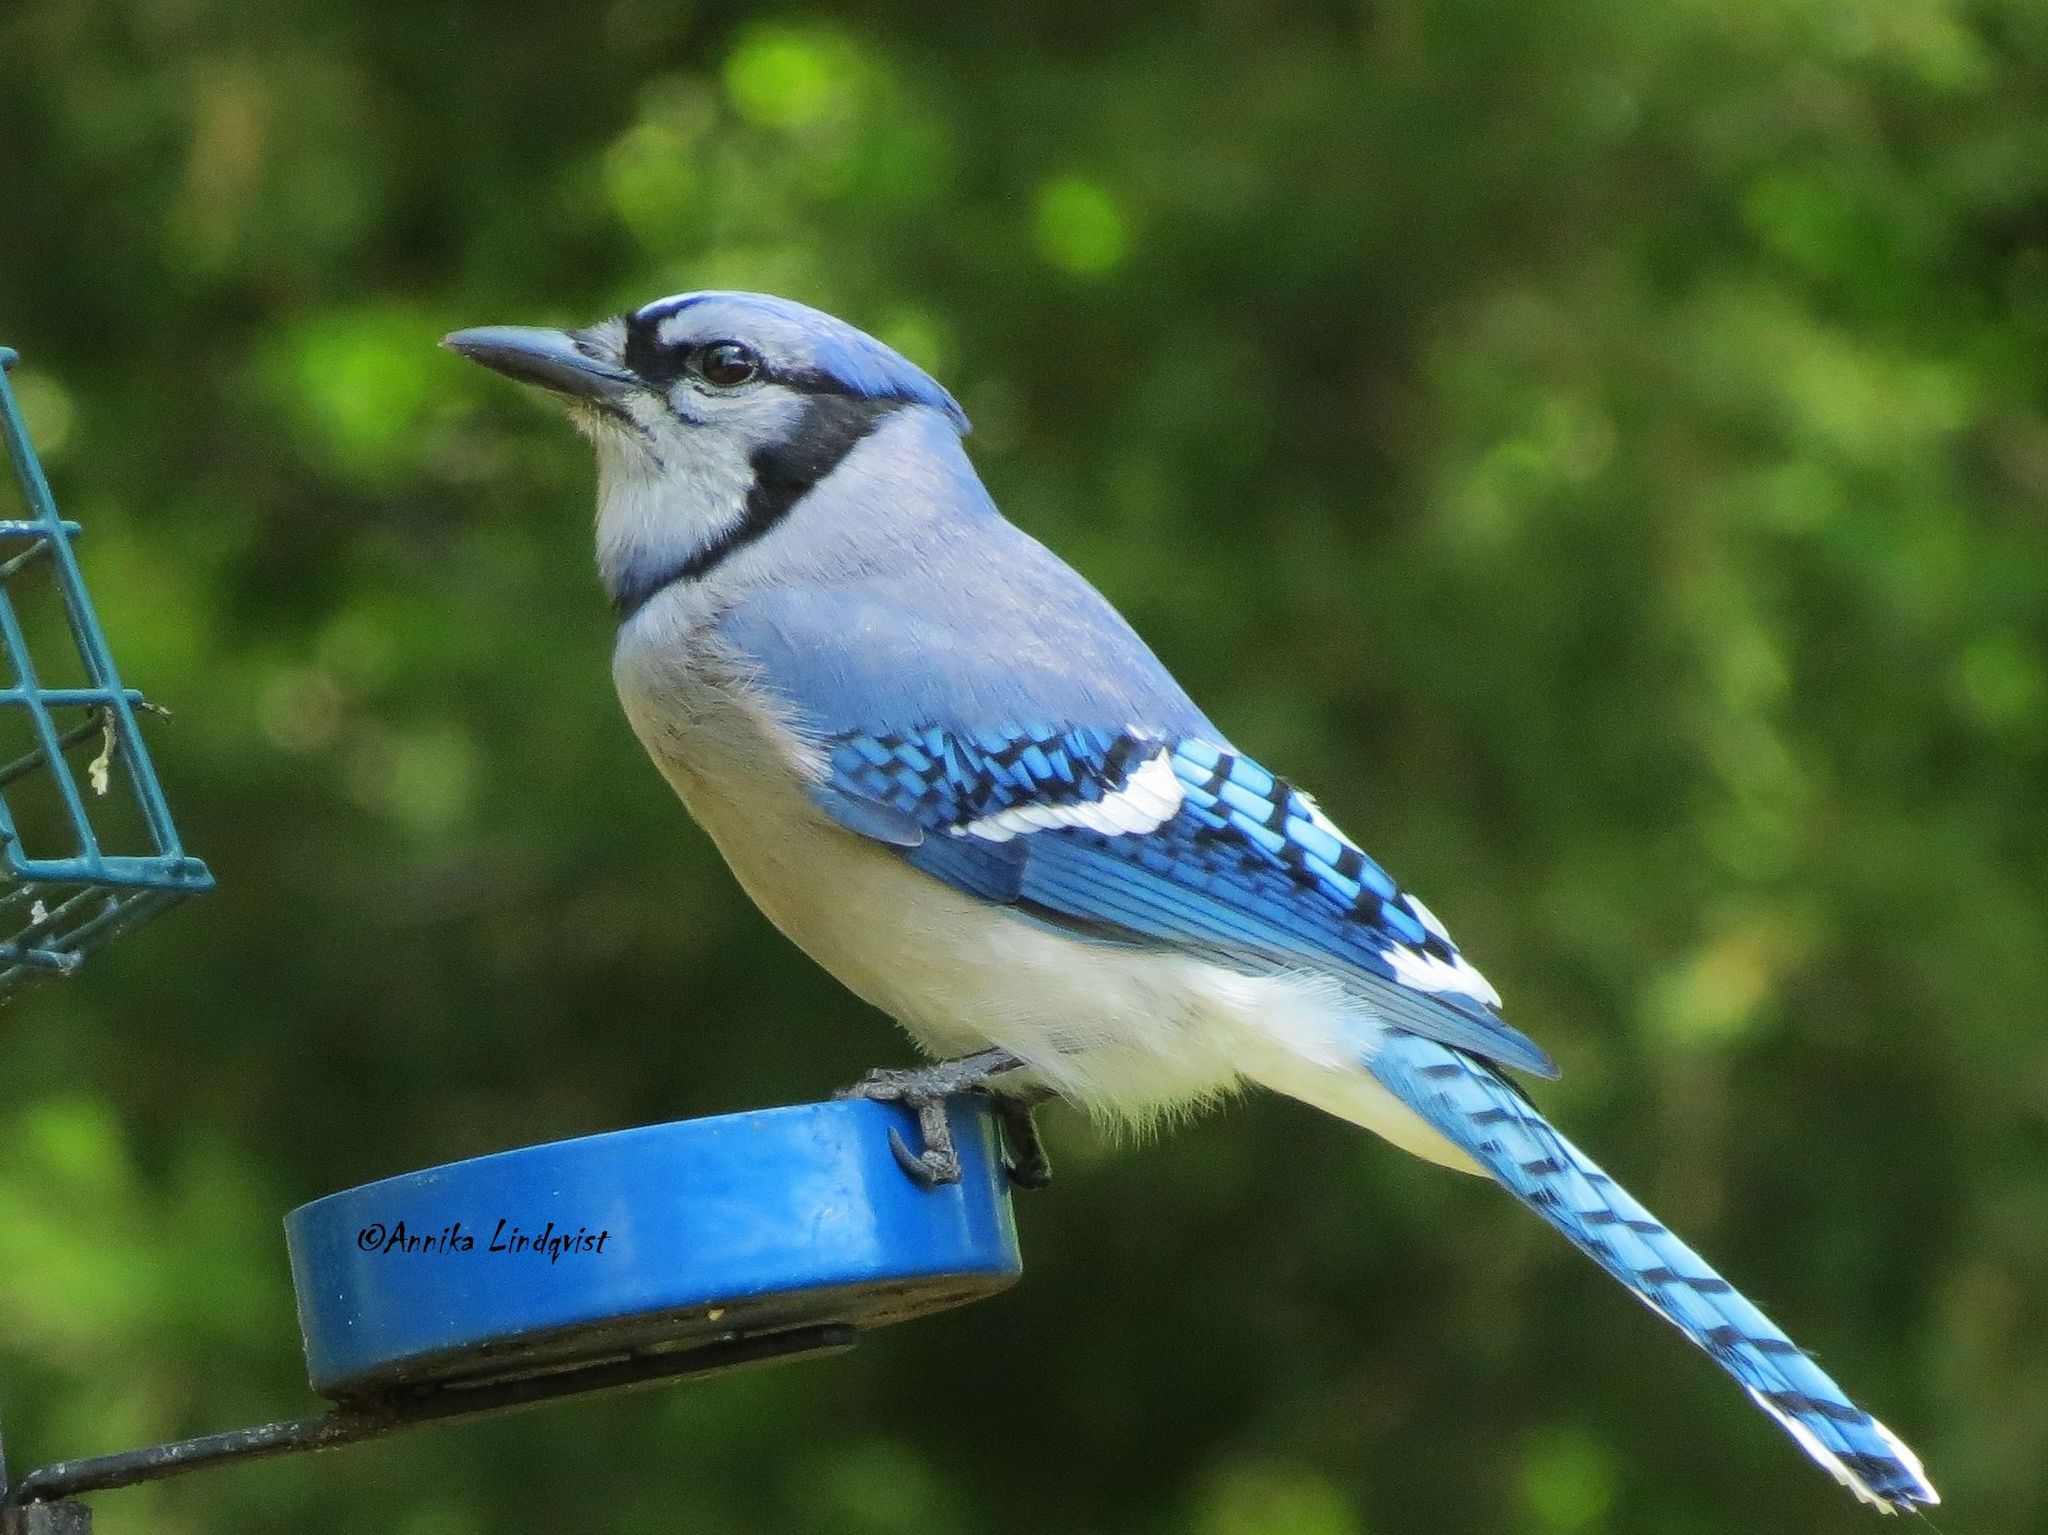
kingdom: Animalia
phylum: Chordata
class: Aves
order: Passeriformes
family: Corvidae
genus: Cyanocitta
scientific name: Cyanocitta cristata
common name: Blue jay
